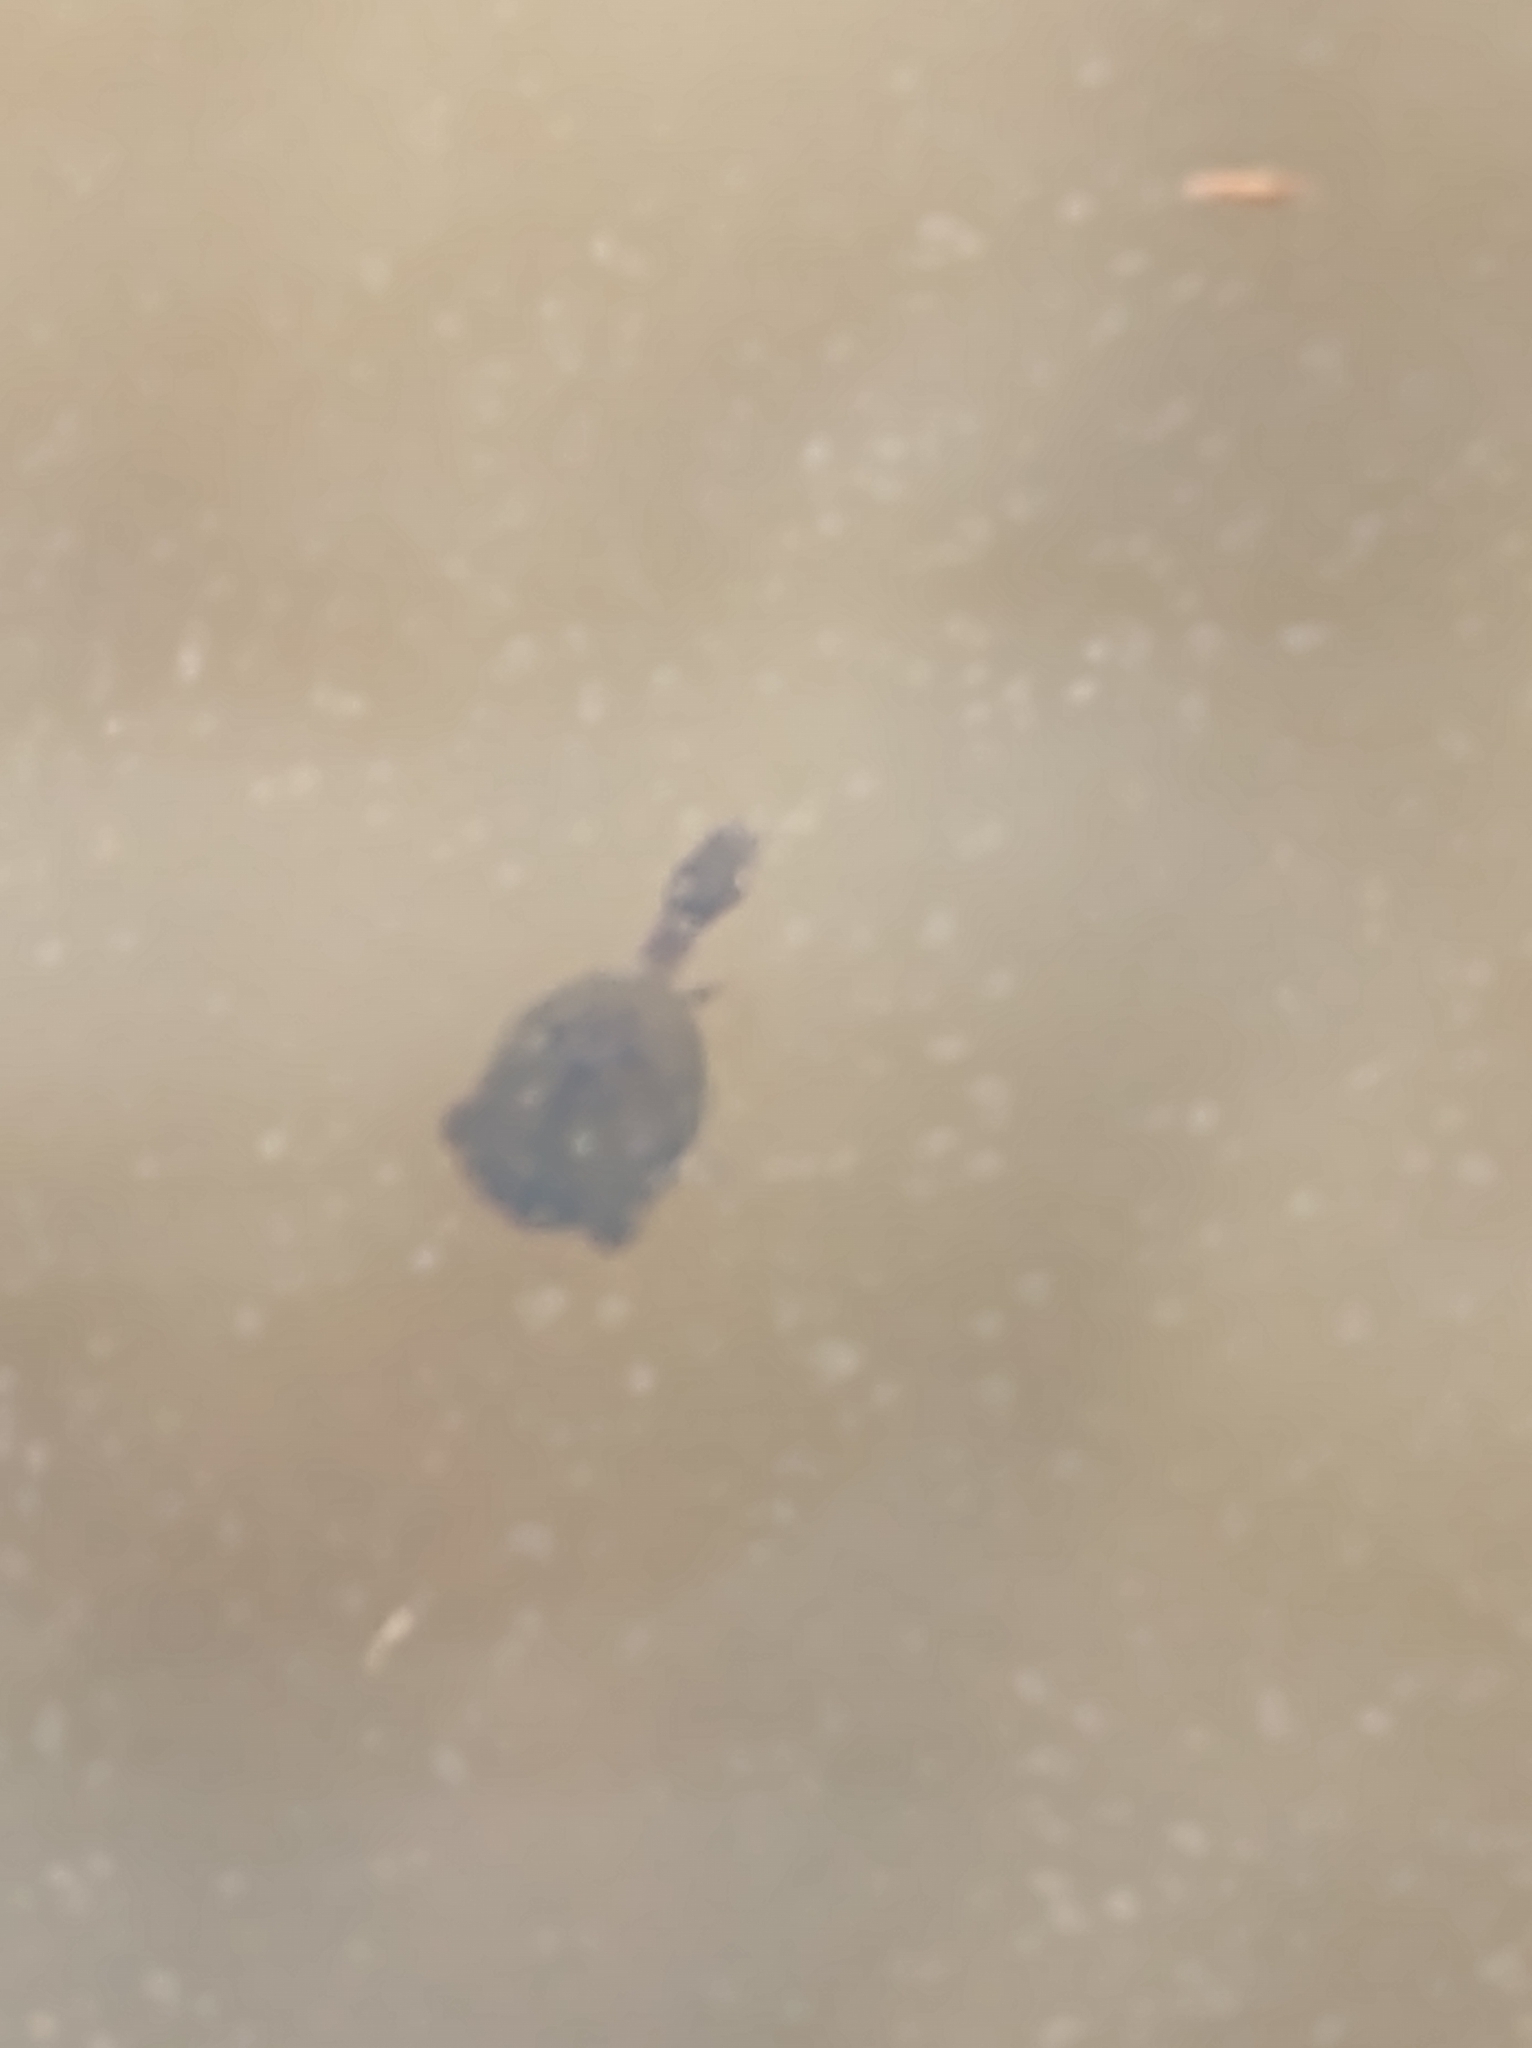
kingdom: Animalia
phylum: Chordata
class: Testudines
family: Kinosternidae
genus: Sternotherus
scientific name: Sternotherus odoratus
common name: Common musk turtle
